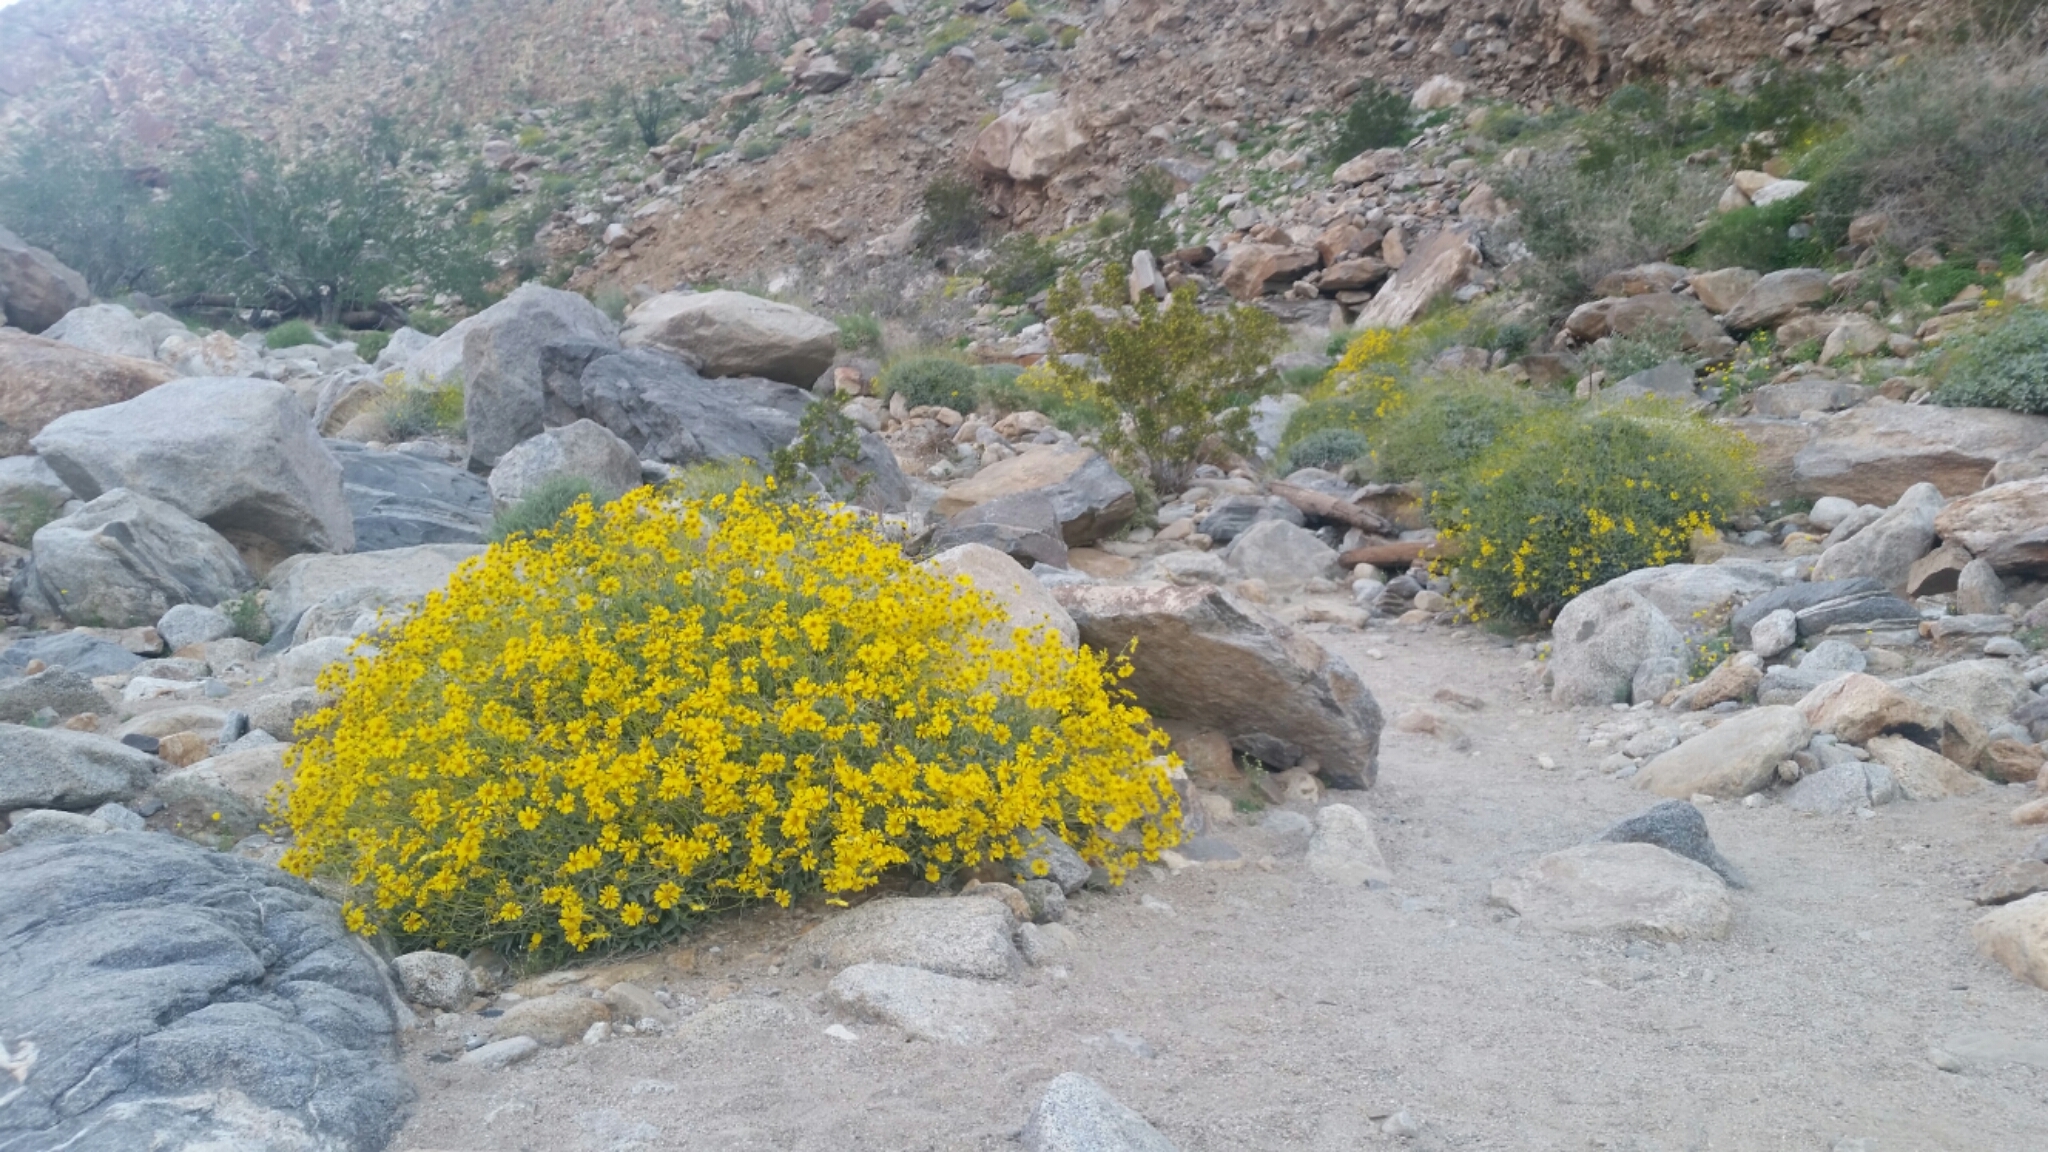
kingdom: Plantae
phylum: Tracheophyta
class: Magnoliopsida
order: Asterales
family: Asteraceae
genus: Encelia
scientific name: Encelia farinosa
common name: Brittlebush
